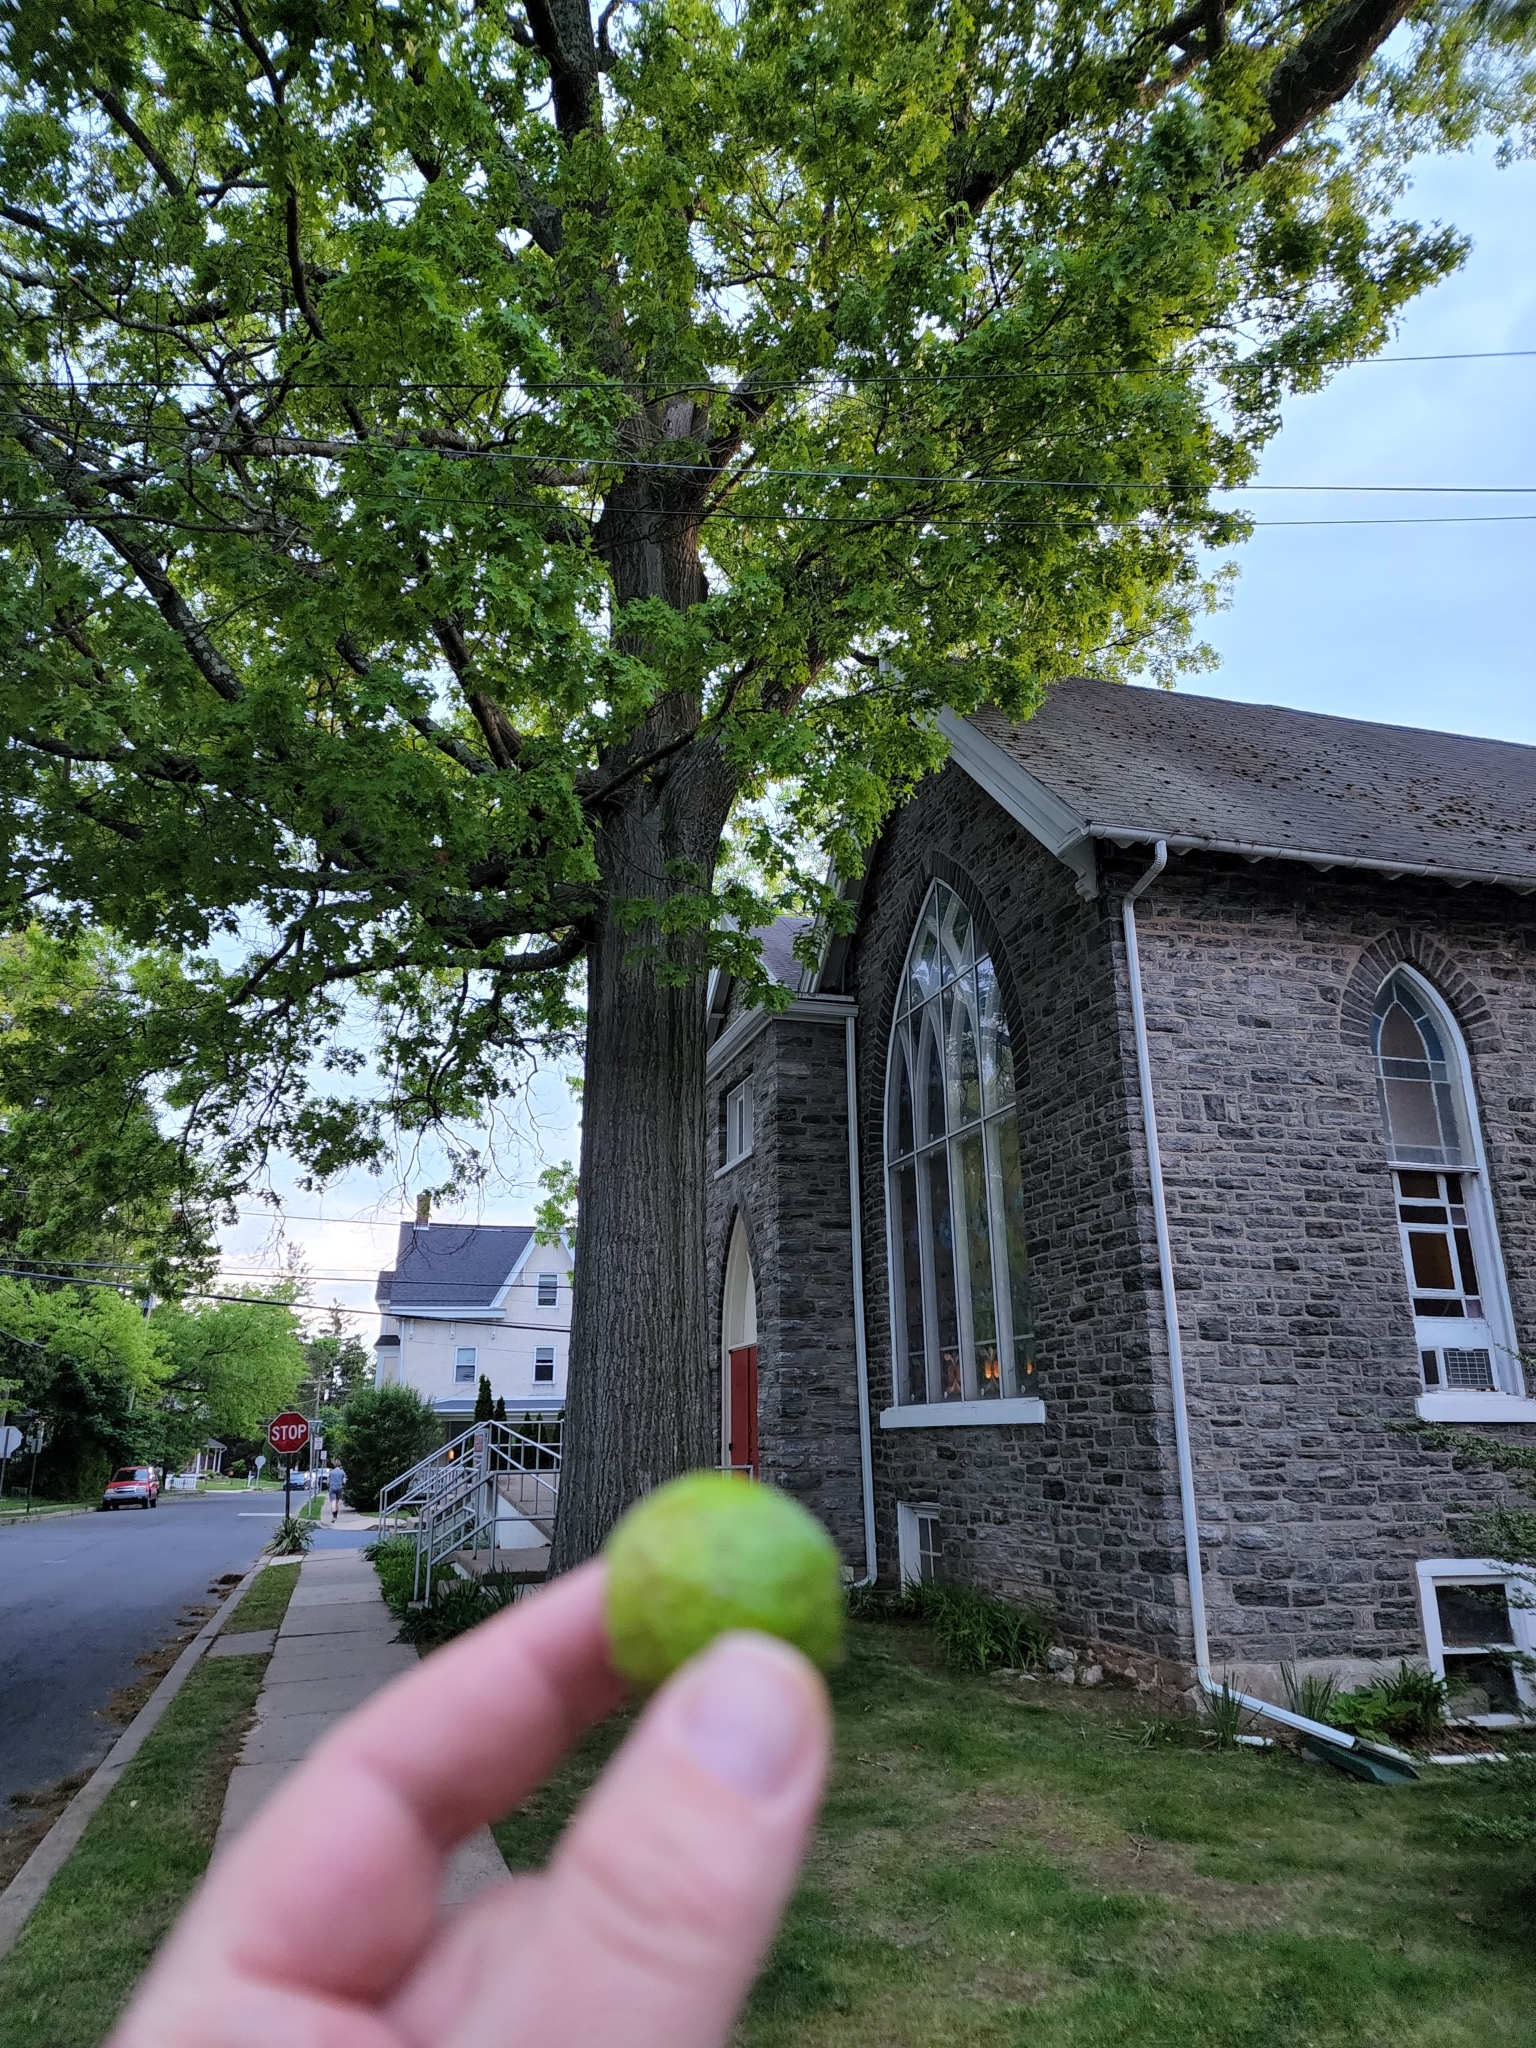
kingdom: Animalia
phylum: Arthropoda
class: Insecta
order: Hymenoptera
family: Cynipidae
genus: Amphibolips
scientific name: Amphibolips
